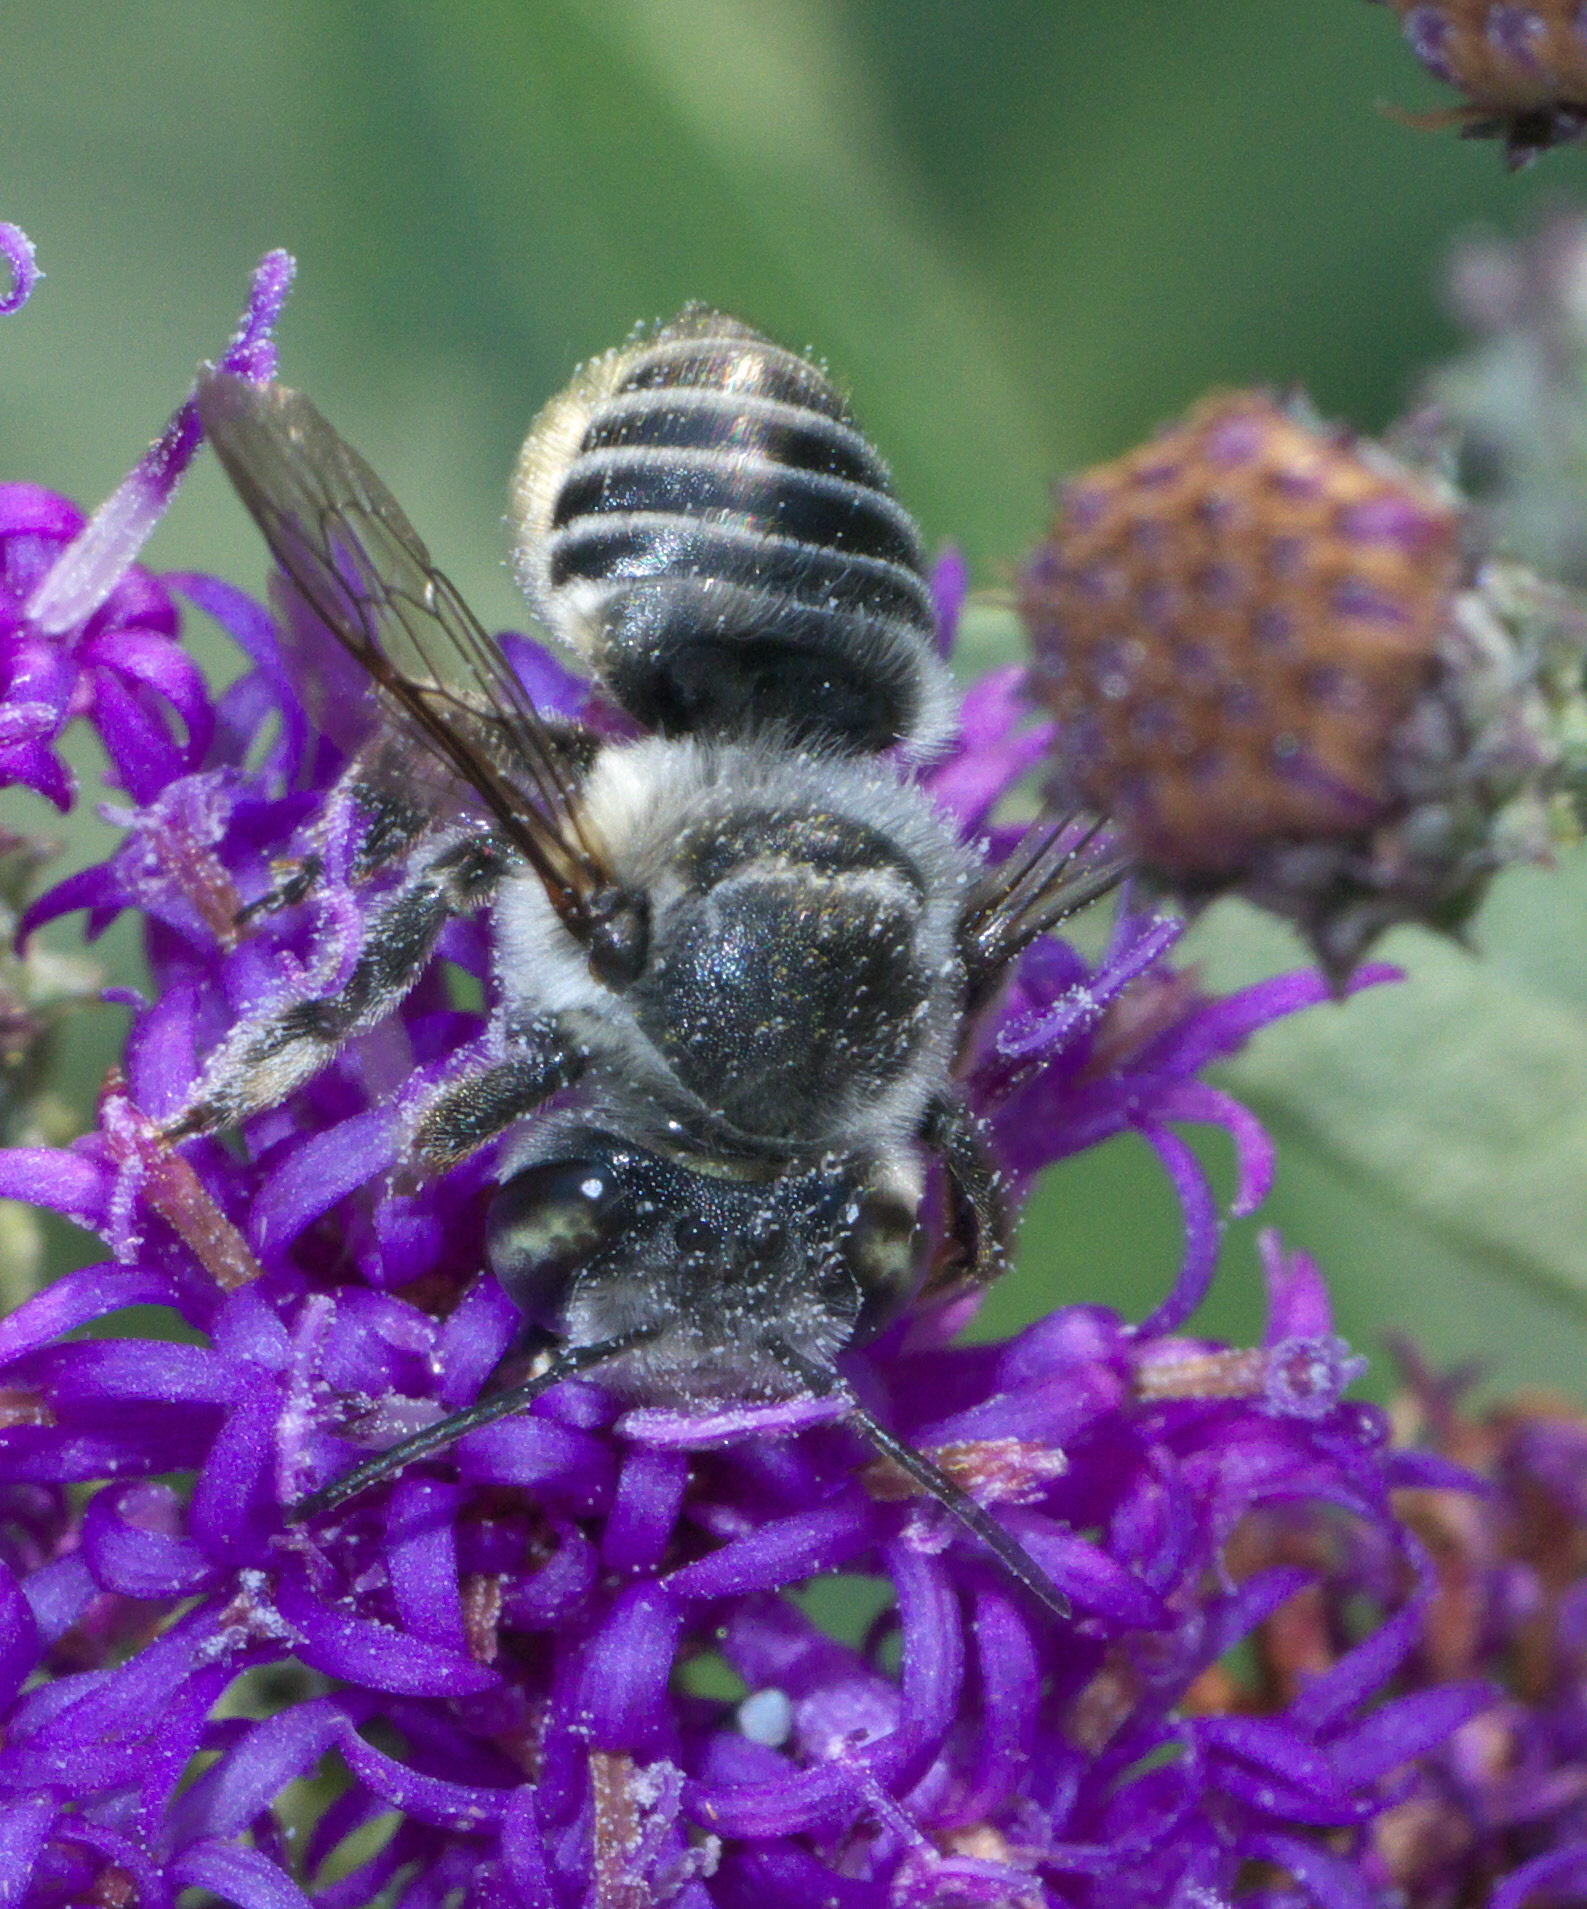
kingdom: Animalia
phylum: Arthropoda
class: Insecta
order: Hymenoptera
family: Megachilidae
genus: Megachile
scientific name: Megachile petulans
